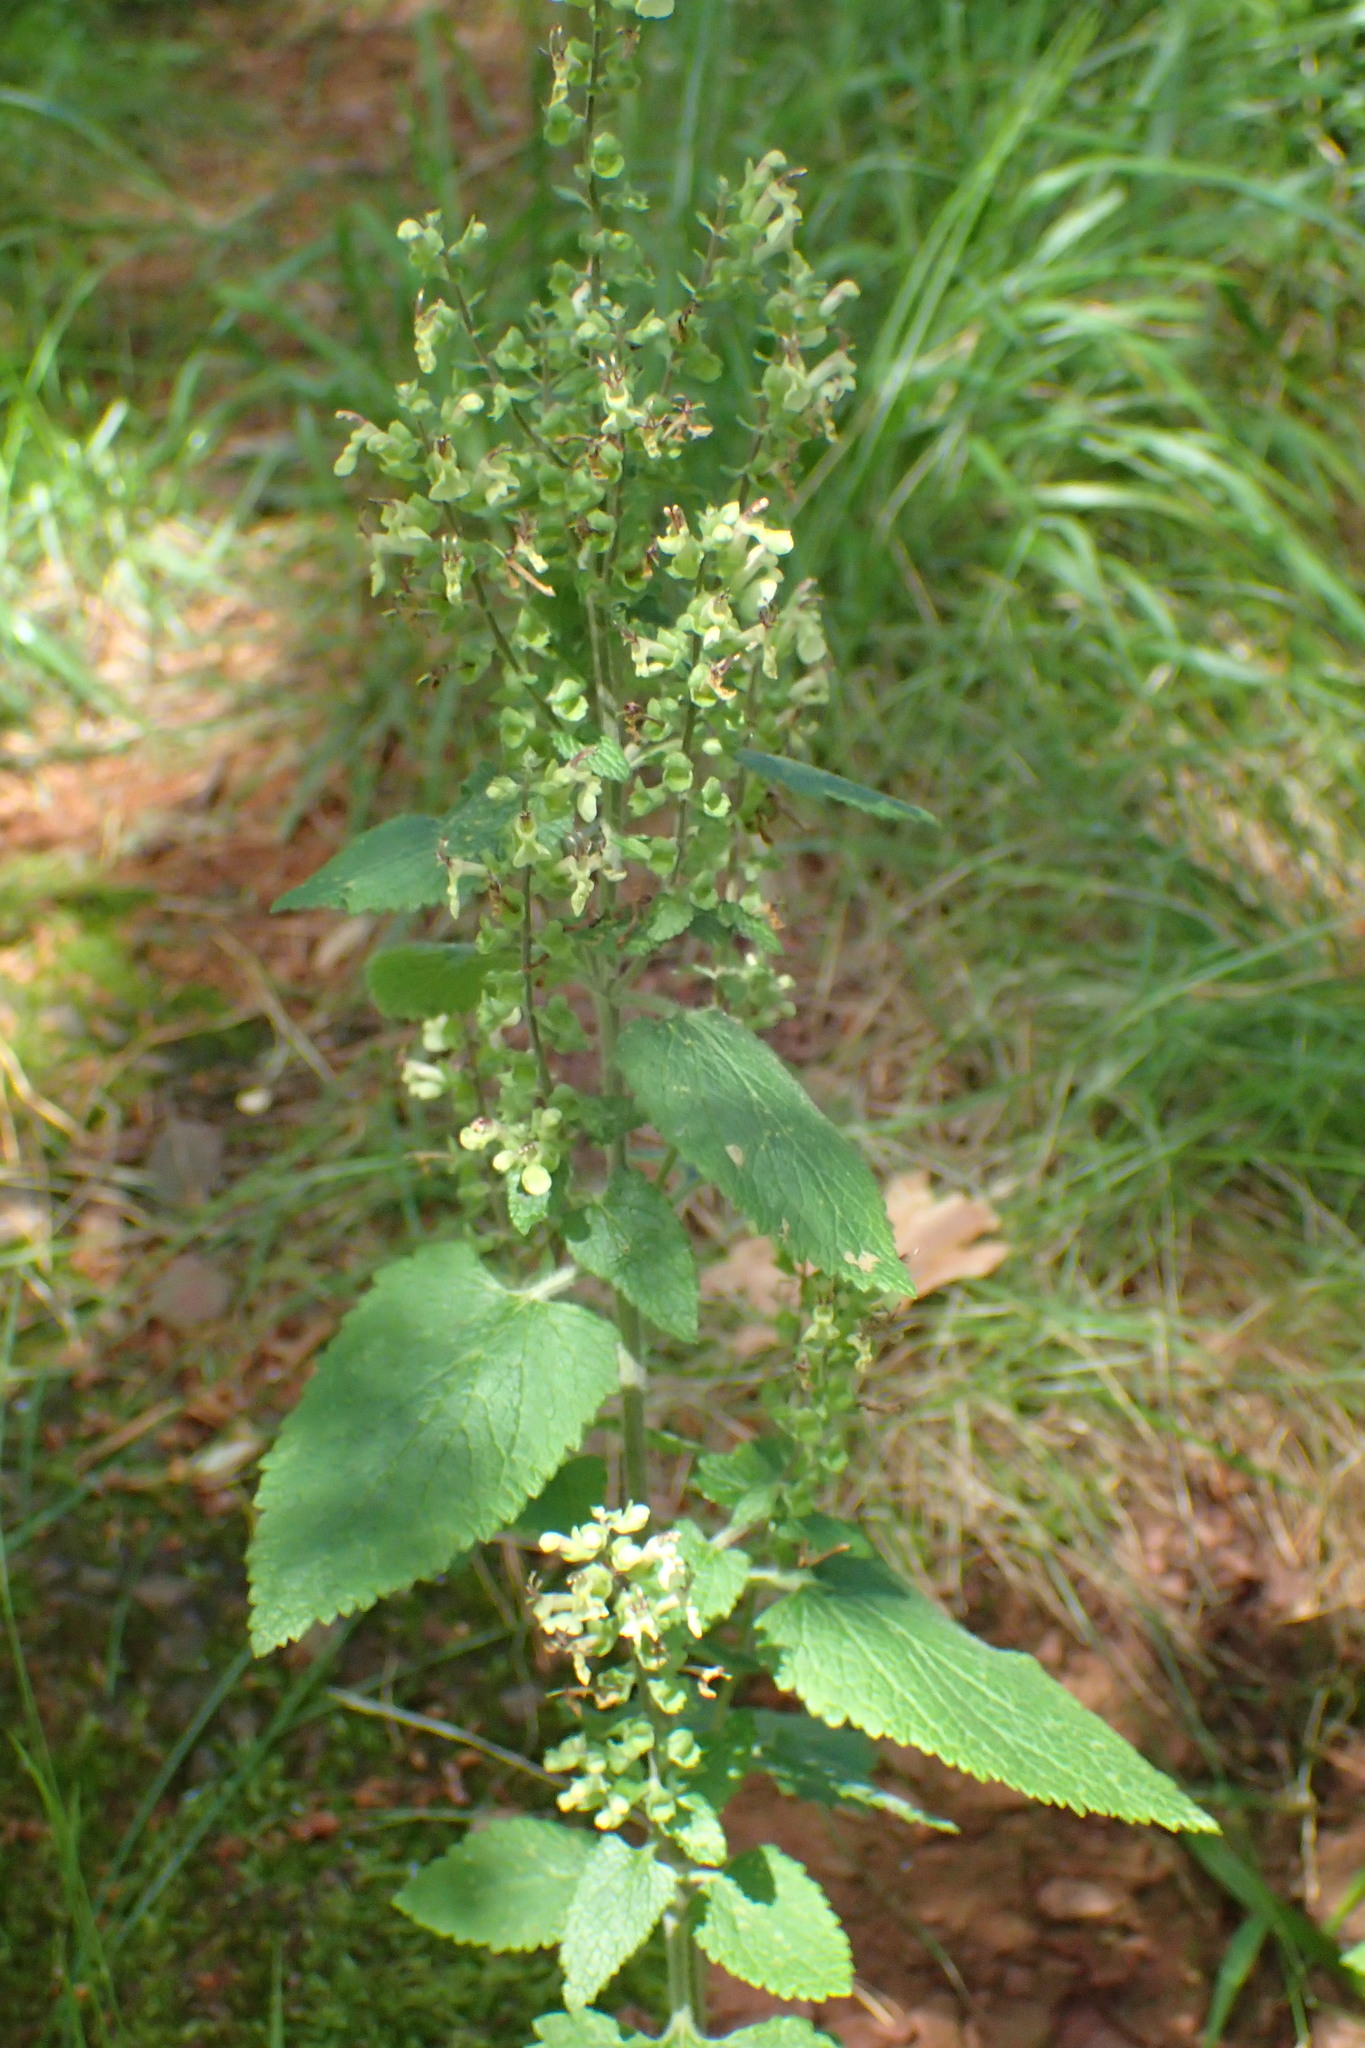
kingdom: Plantae
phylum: Tracheophyta
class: Magnoliopsida
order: Lamiales
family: Lamiaceae
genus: Teucrium
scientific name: Teucrium scorodonia
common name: Woodland germander
